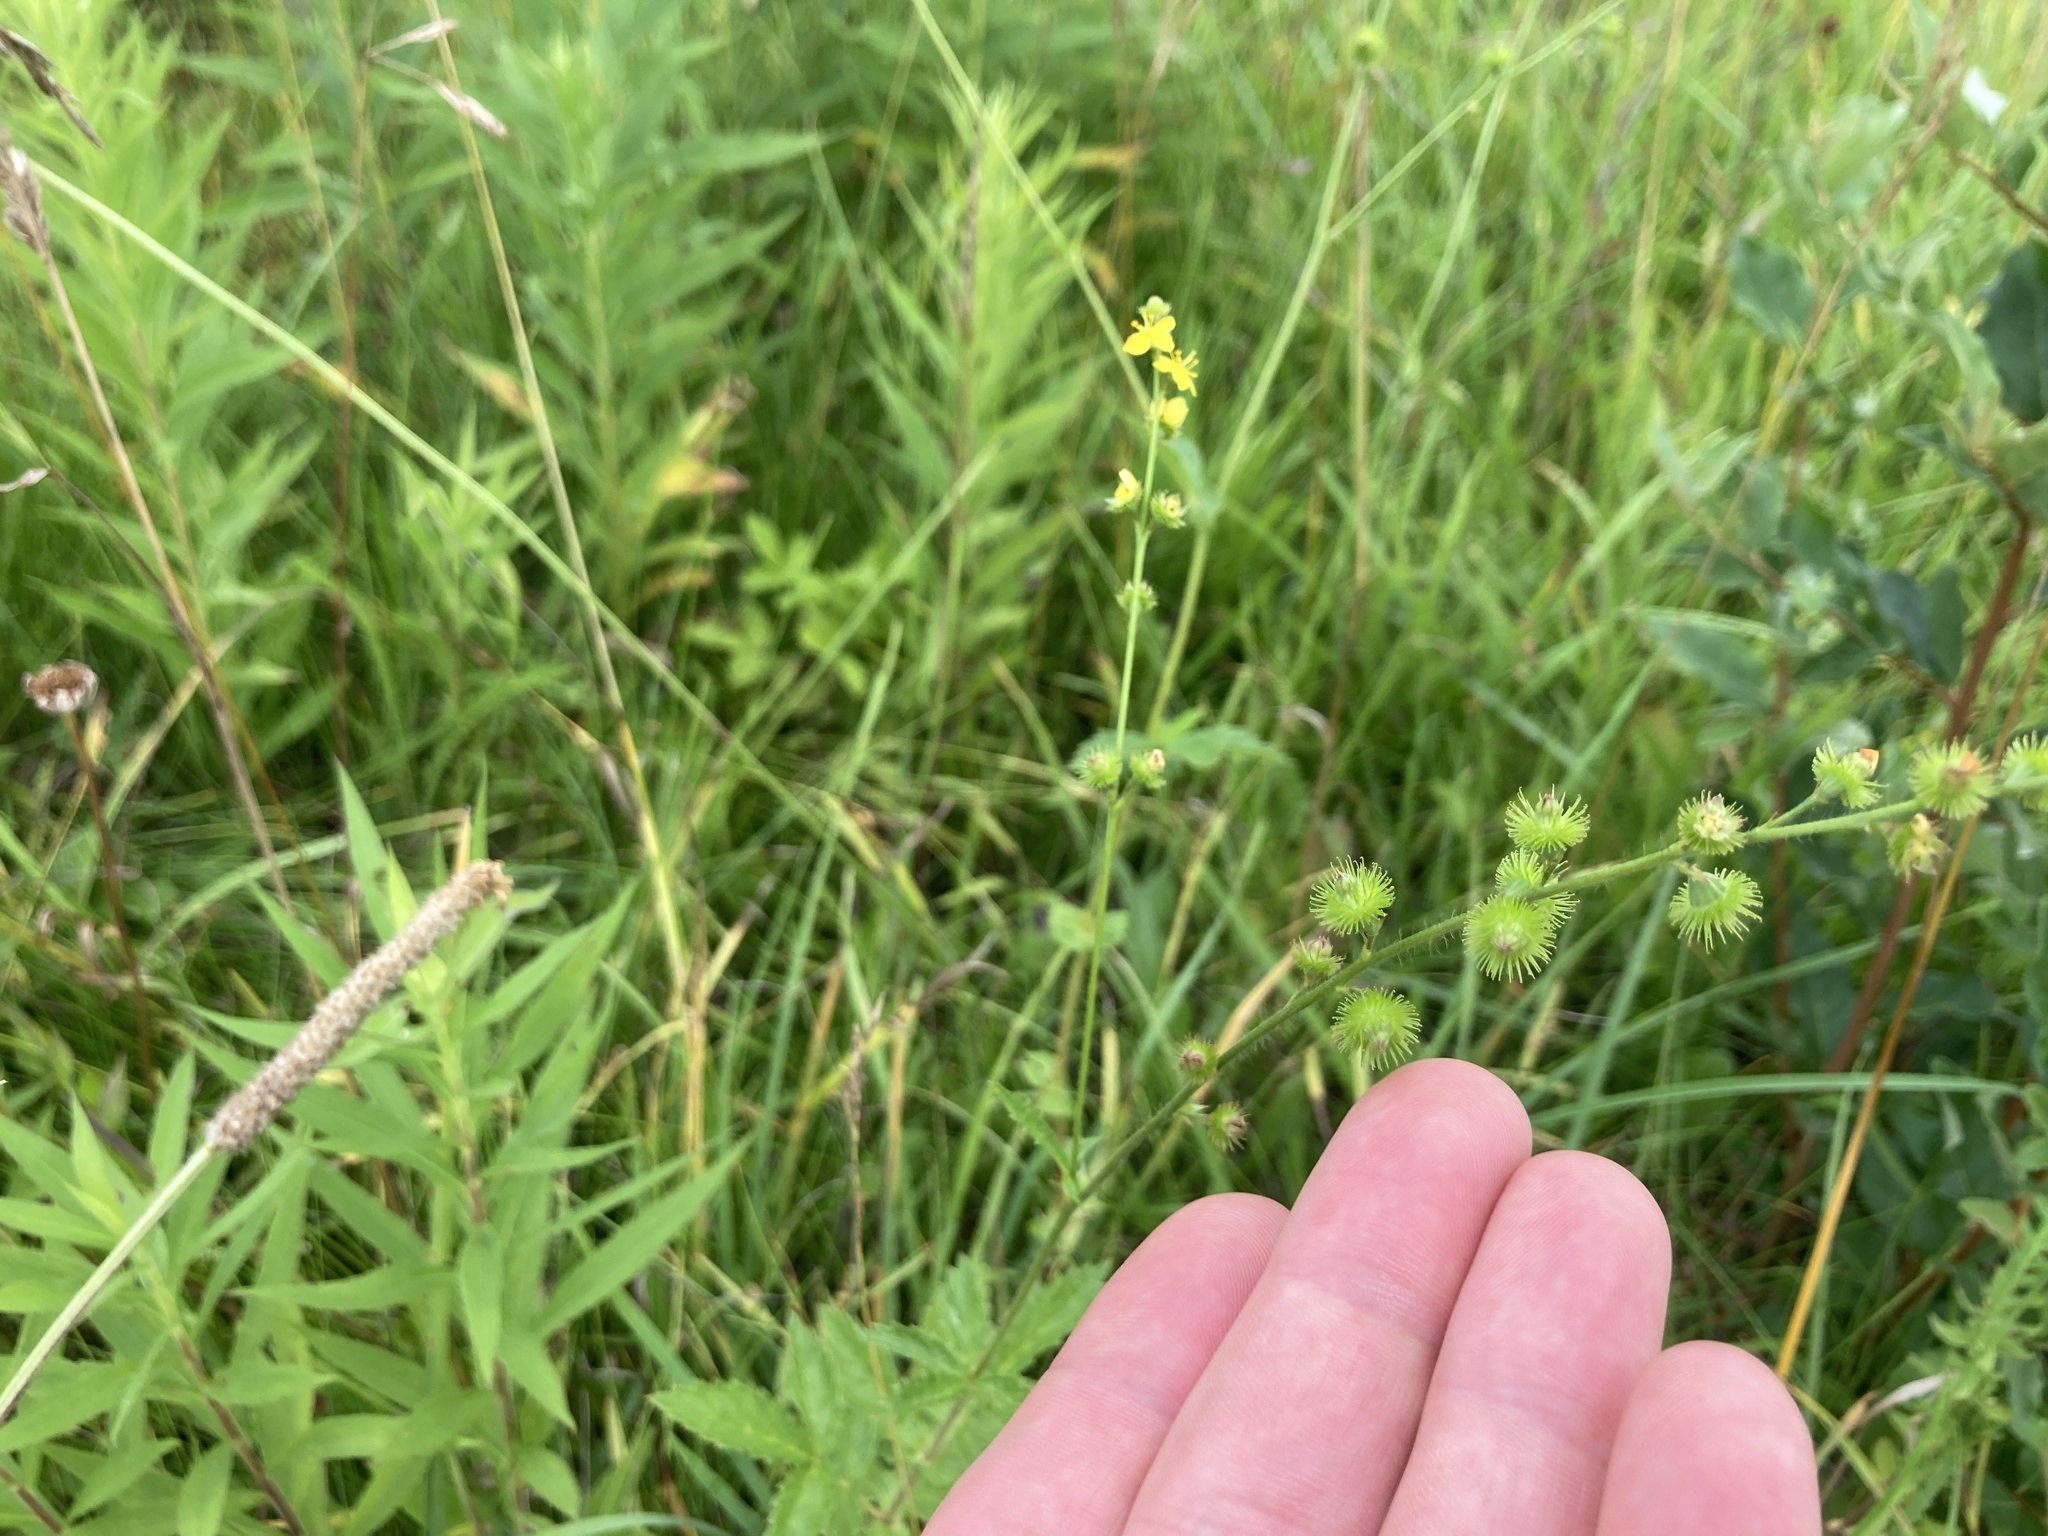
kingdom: Plantae
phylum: Tracheophyta
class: Magnoliopsida
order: Rosales
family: Rosaceae
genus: Agrimonia
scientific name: Agrimonia gryposepala
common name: Common agrimony
